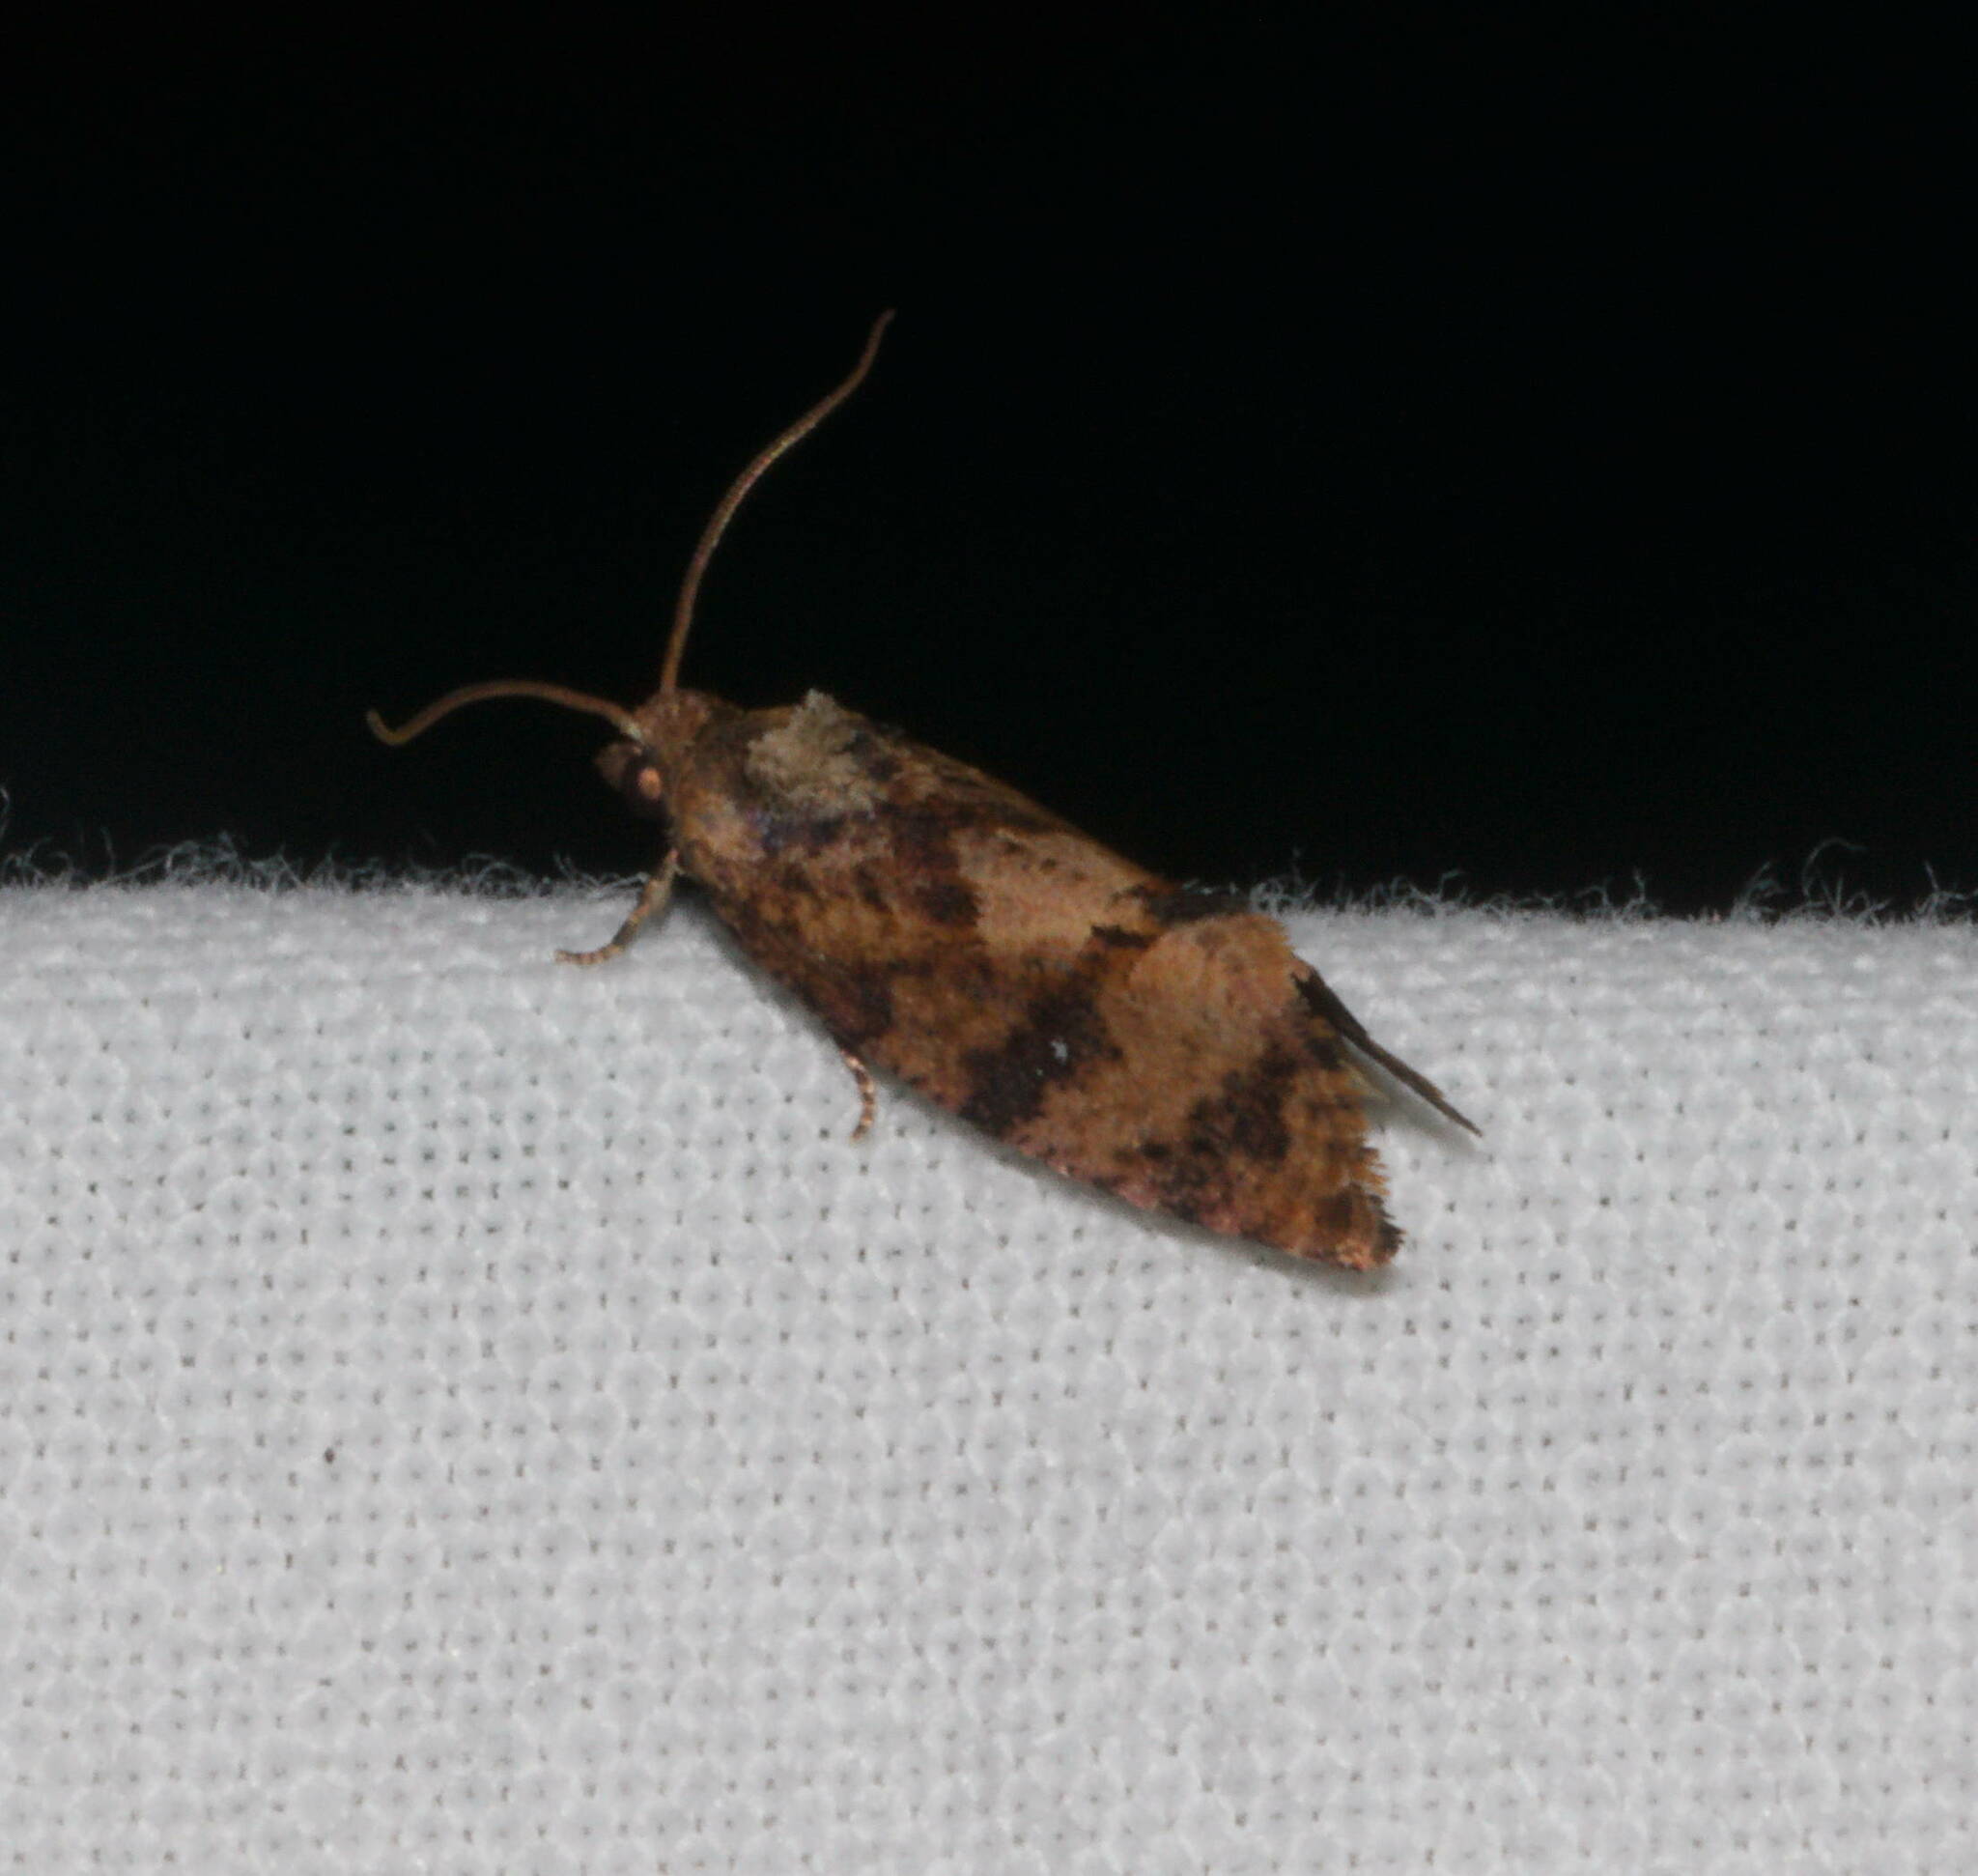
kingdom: Animalia
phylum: Arthropoda
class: Insecta
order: Lepidoptera
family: Tortricidae
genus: Cryptophlebia
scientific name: Cryptophlebia illepida
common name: Moth
